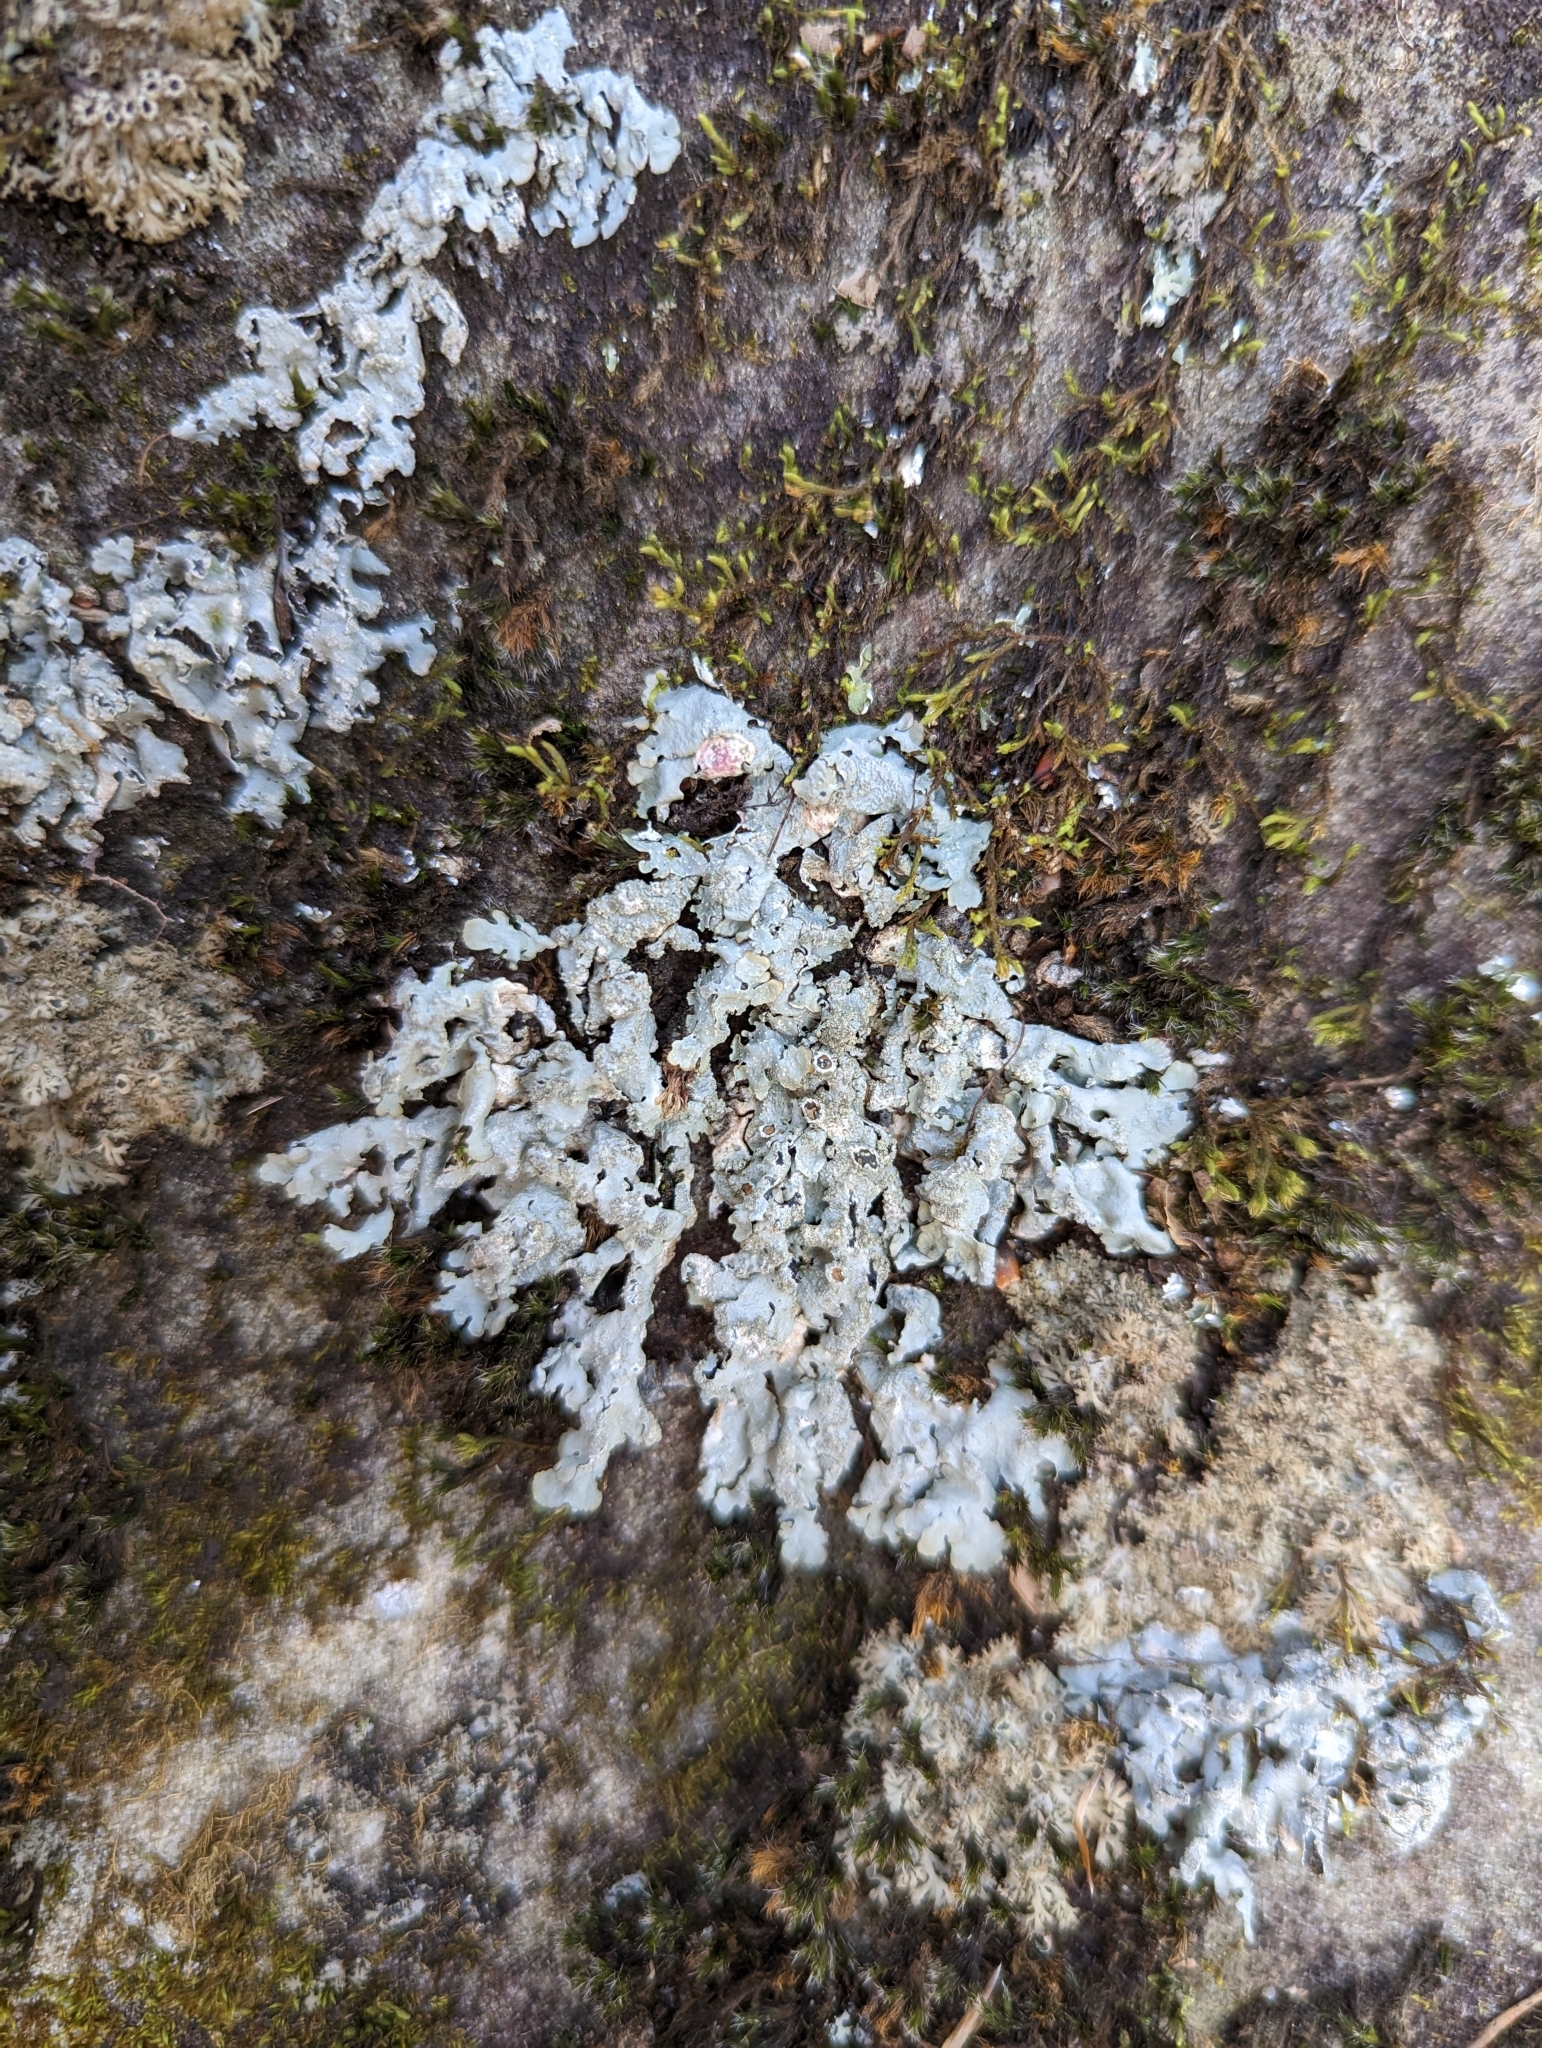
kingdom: Fungi
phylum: Ascomycota
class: Lecanoromycetes
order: Lecanorales
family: Parmeliaceae
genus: Myelochroa
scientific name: Myelochroa aurulenta
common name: Powdery axil-bristle lichen
